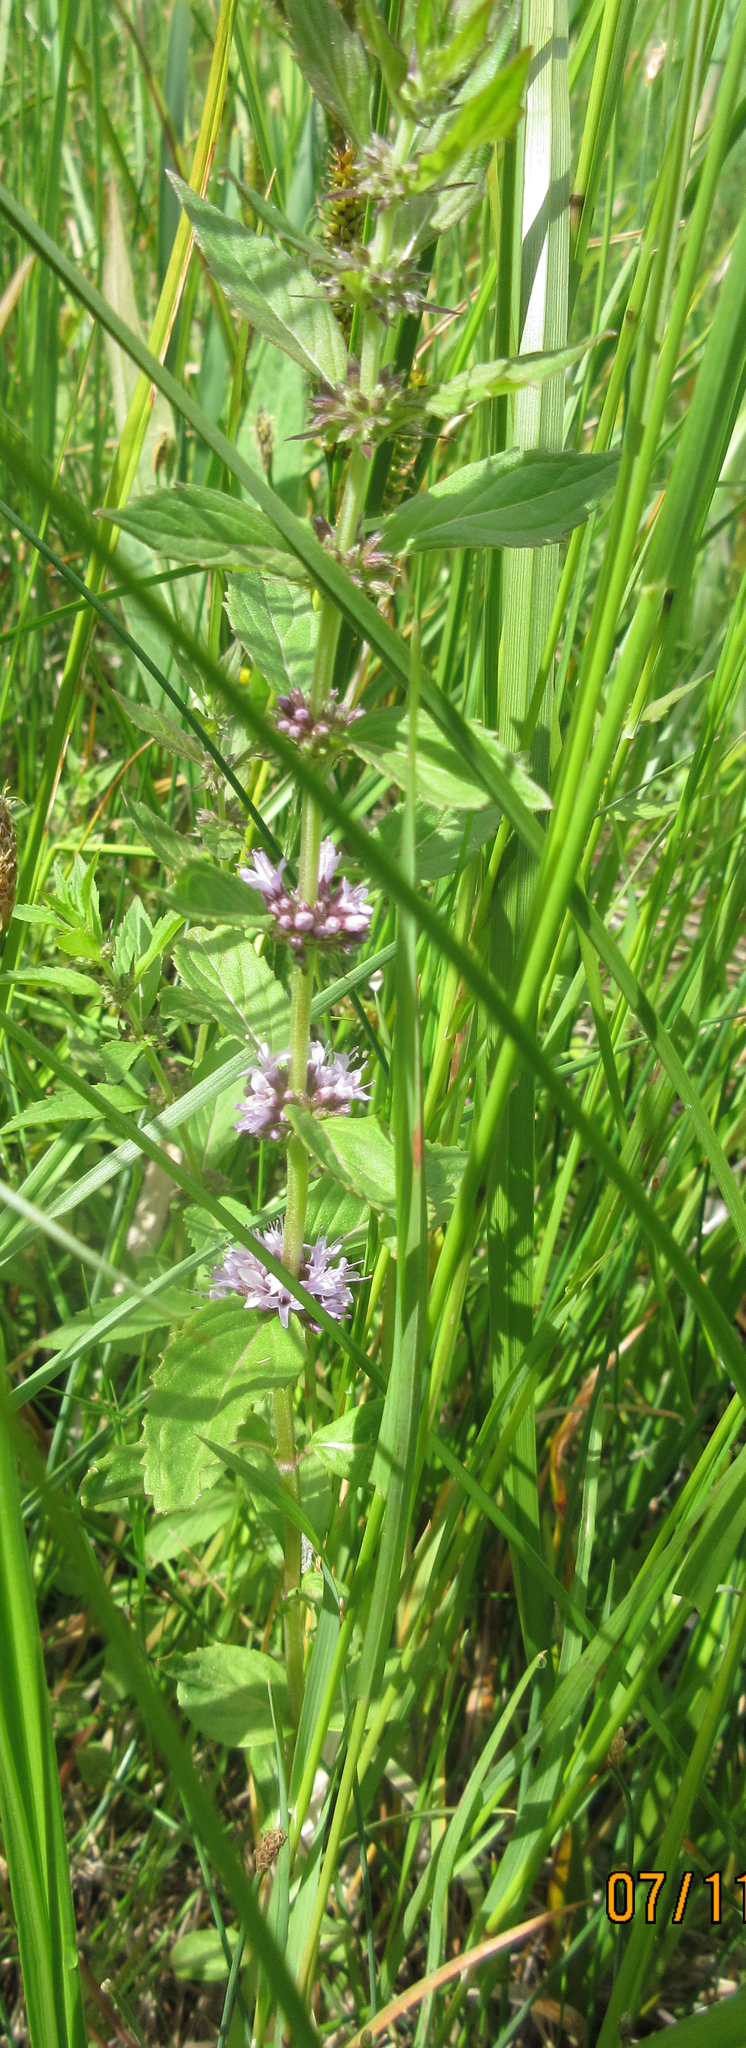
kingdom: Plantae
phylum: Tracheophyta
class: Magnoliopsida
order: Lamiales
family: Lamiaceae
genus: Mentha
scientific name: Mentha canadensis
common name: American corn mint
